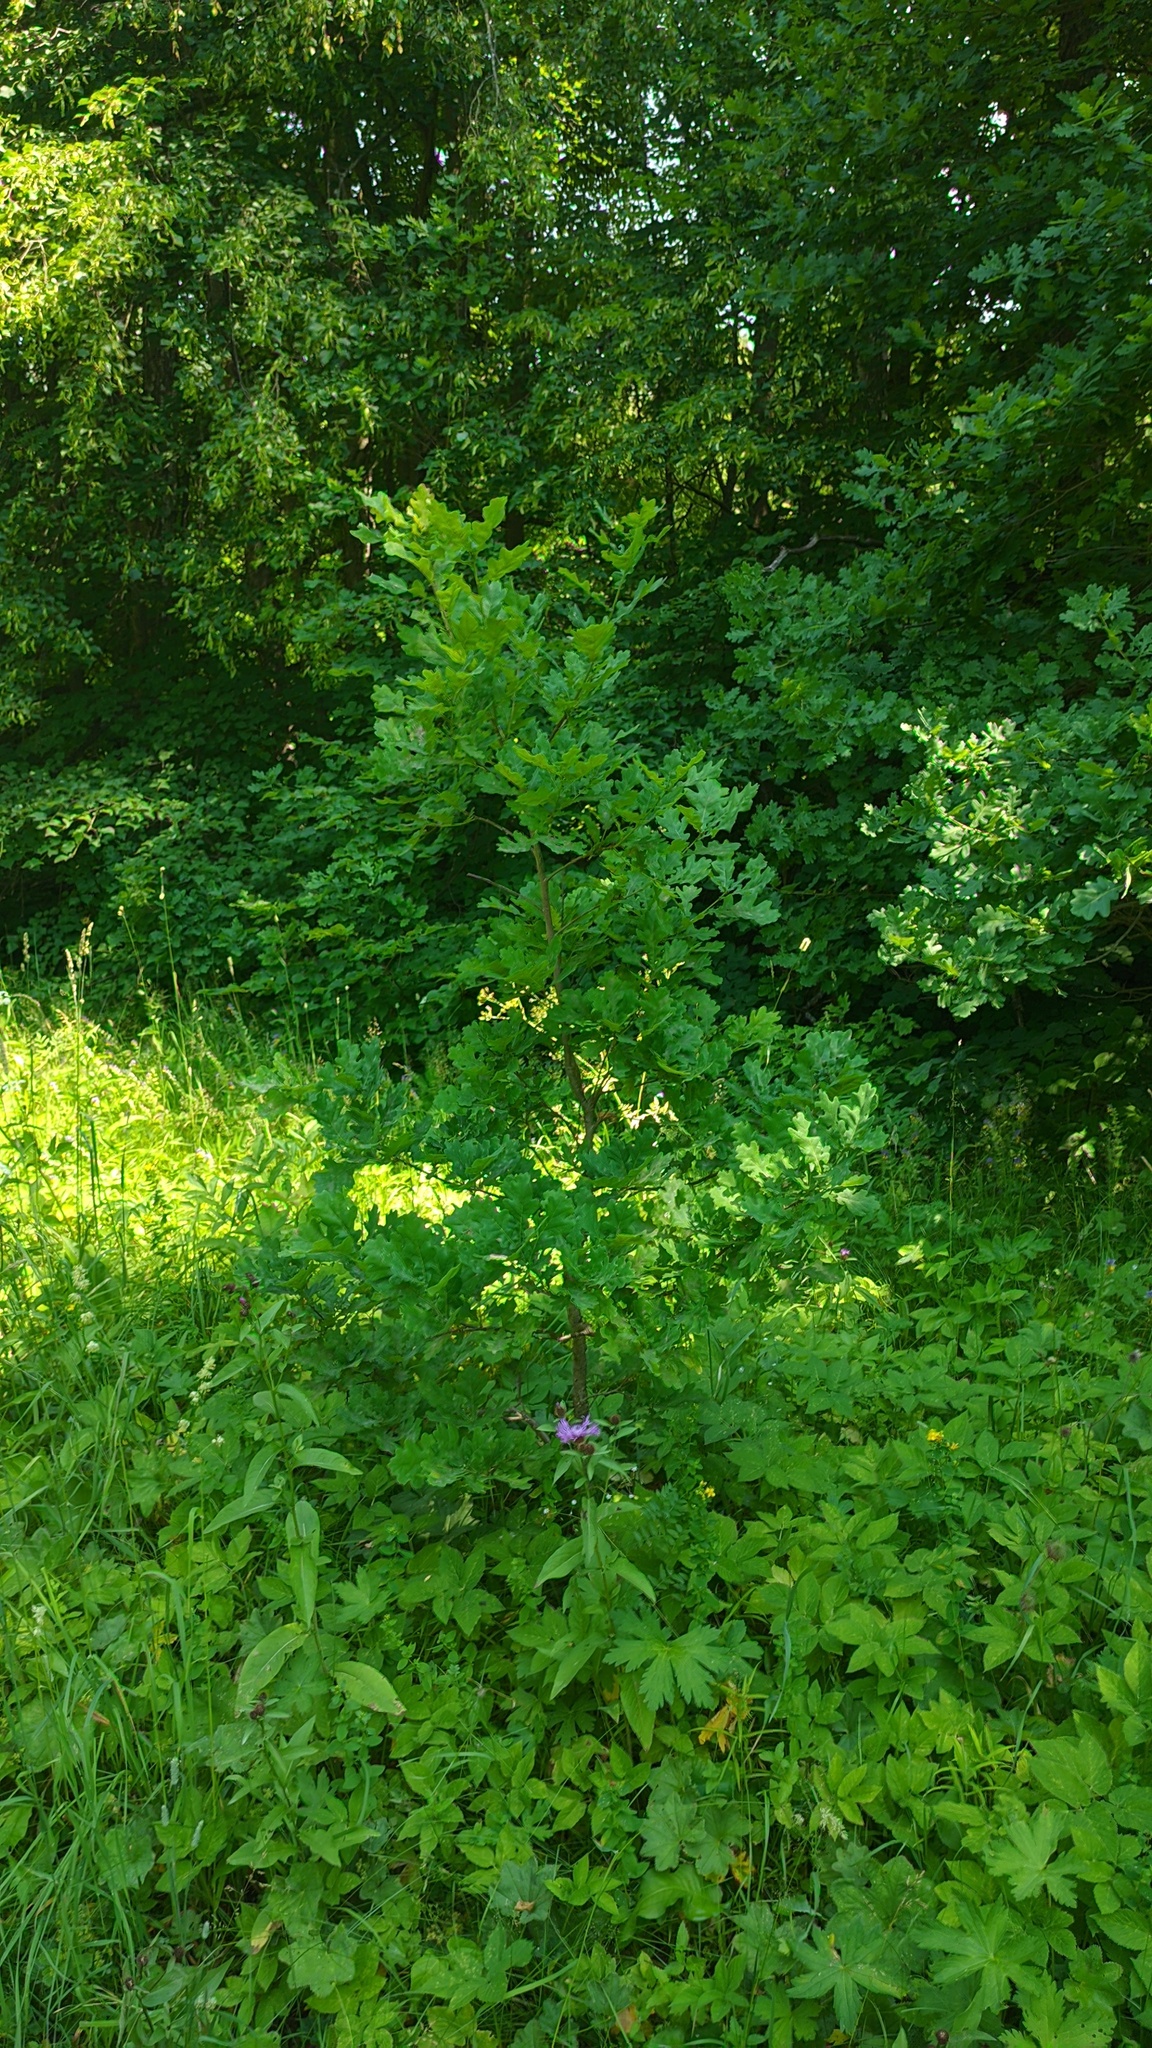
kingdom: Plantae
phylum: Tracheophyta
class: Magnoliopsida
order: Fagales
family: Fagaceae
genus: Quercus
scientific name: Quercus robur
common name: Pedunculate oak
